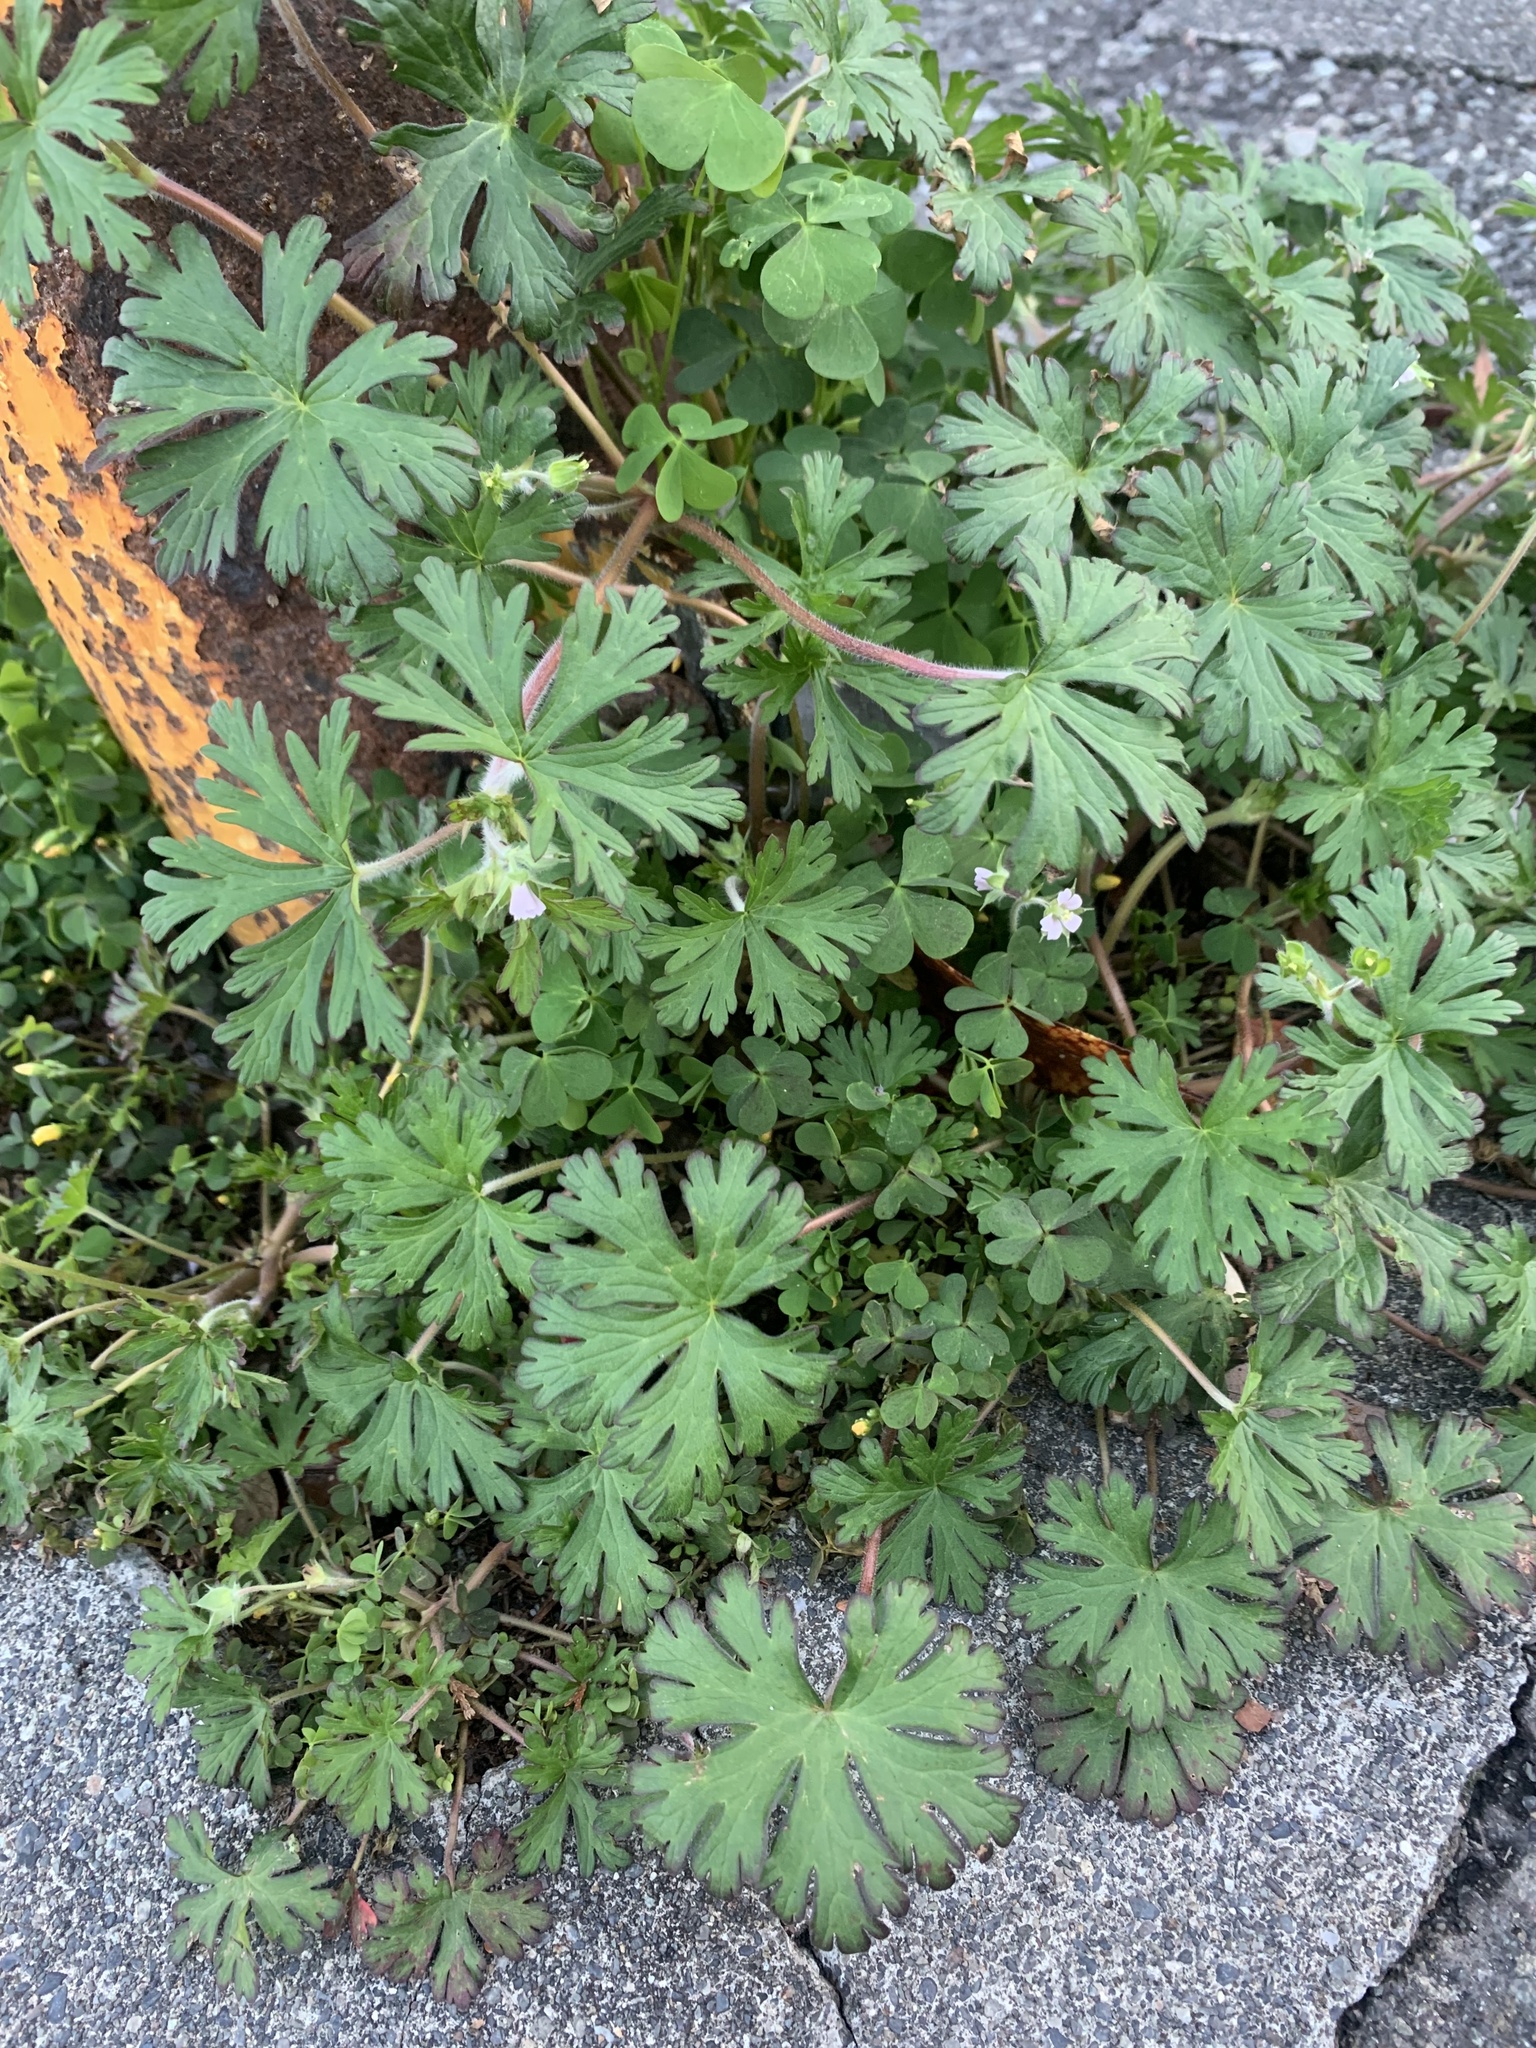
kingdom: Plantae
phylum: Tracheophyta
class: Magnoliopsida
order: Geraniales
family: Geraniaceae
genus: Geranium
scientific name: Geranium carolinianum
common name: Carolina crane's-bill
